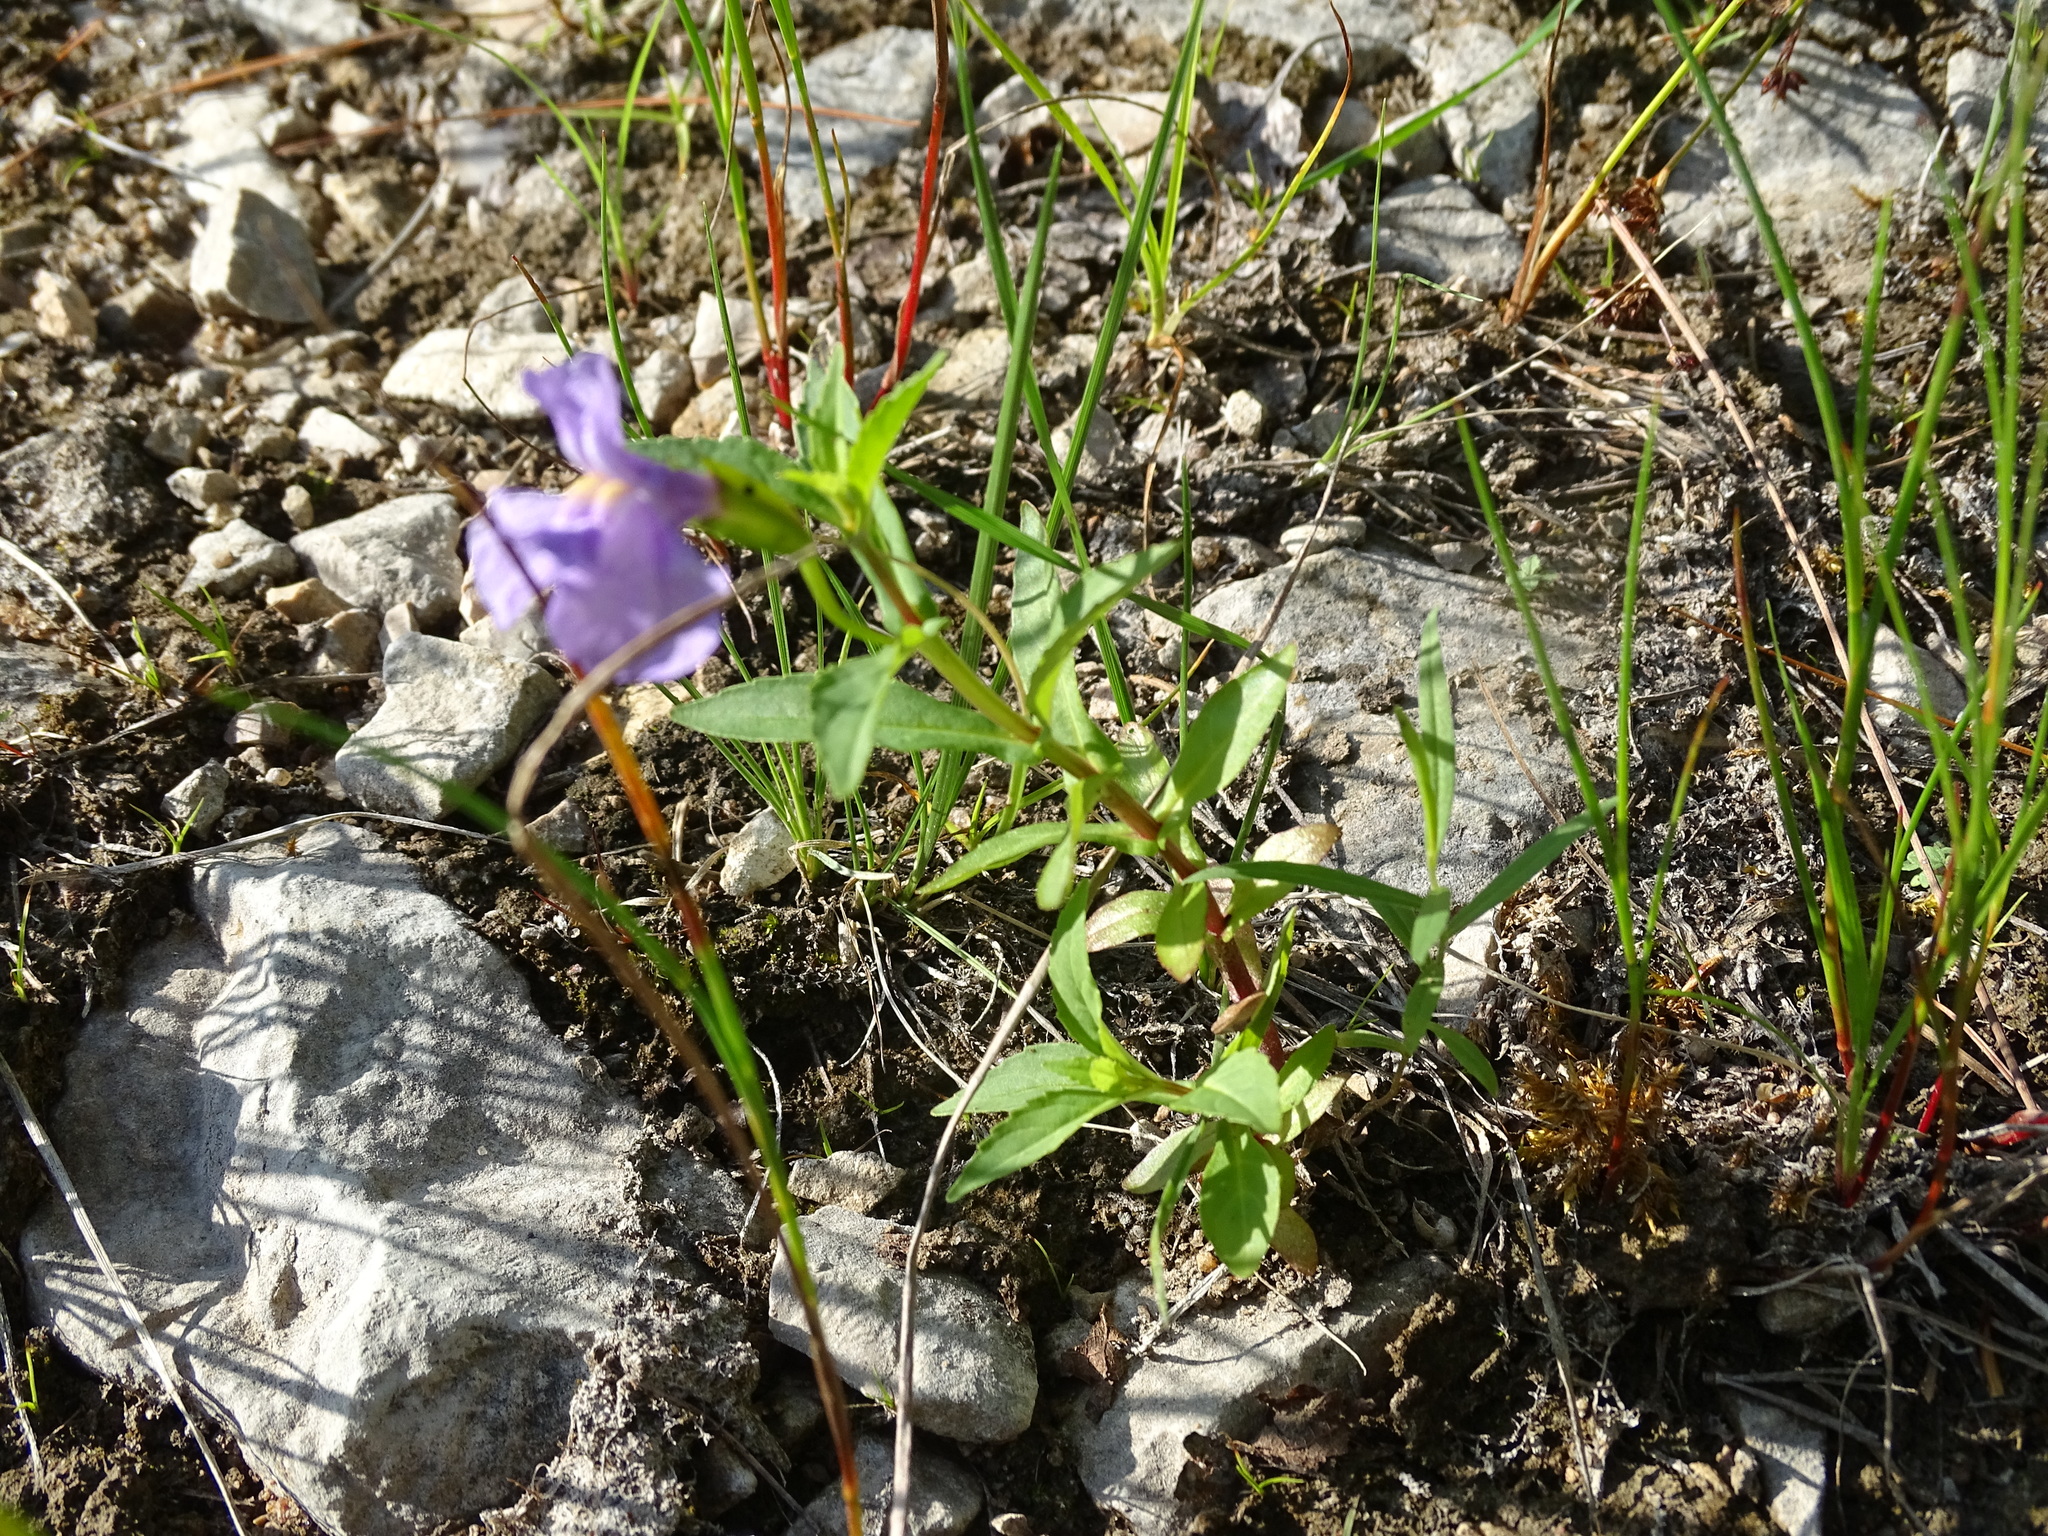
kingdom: Plantae
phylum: Tracheophyta
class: Magnoliopsida
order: Lamiales
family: Phrymaceae
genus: Mimulus
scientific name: Mimulus ringens
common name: Allegheny monkeyflower
